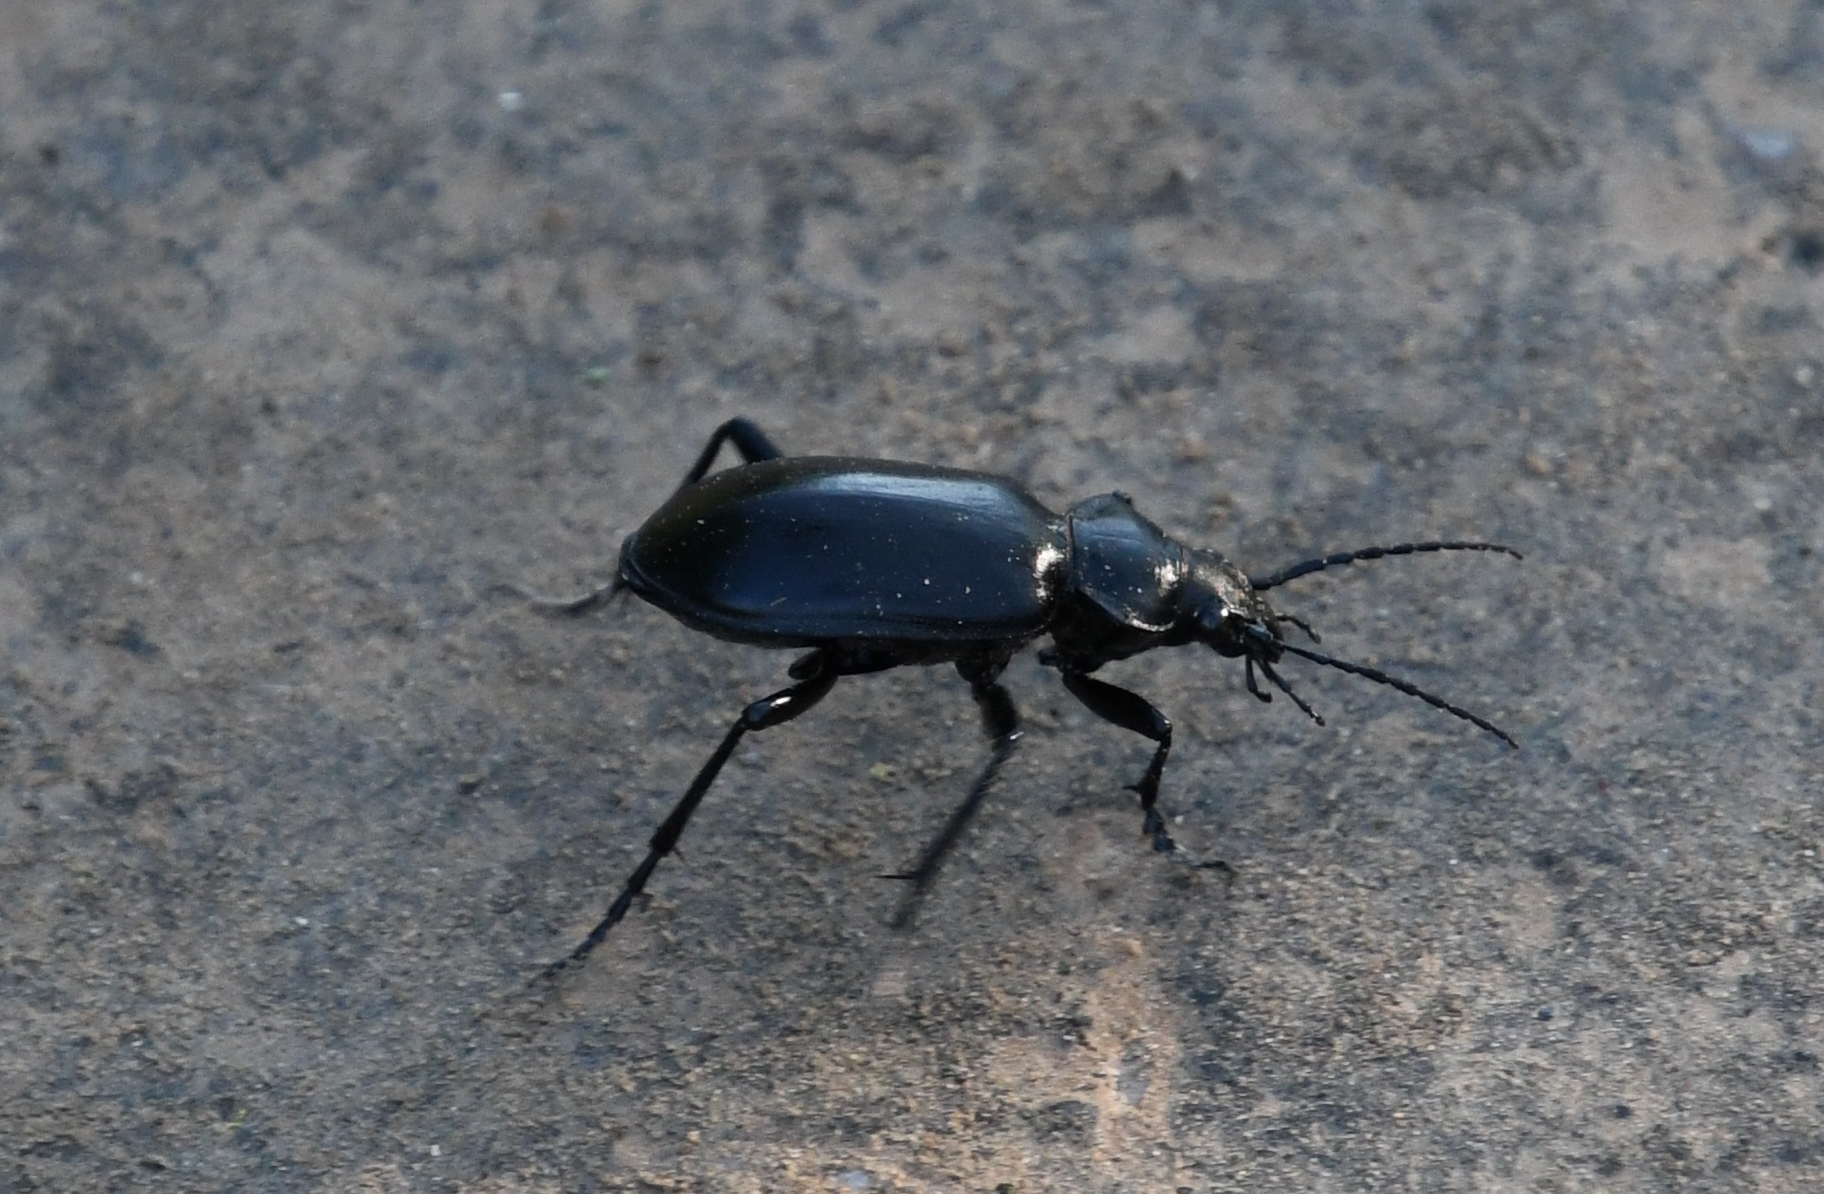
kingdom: Animalia
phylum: Arthropoda
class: Insecta
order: Coleoptera
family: Carabidae
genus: Calosoma
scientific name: Calosoma peregrinator
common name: Ground beetle
